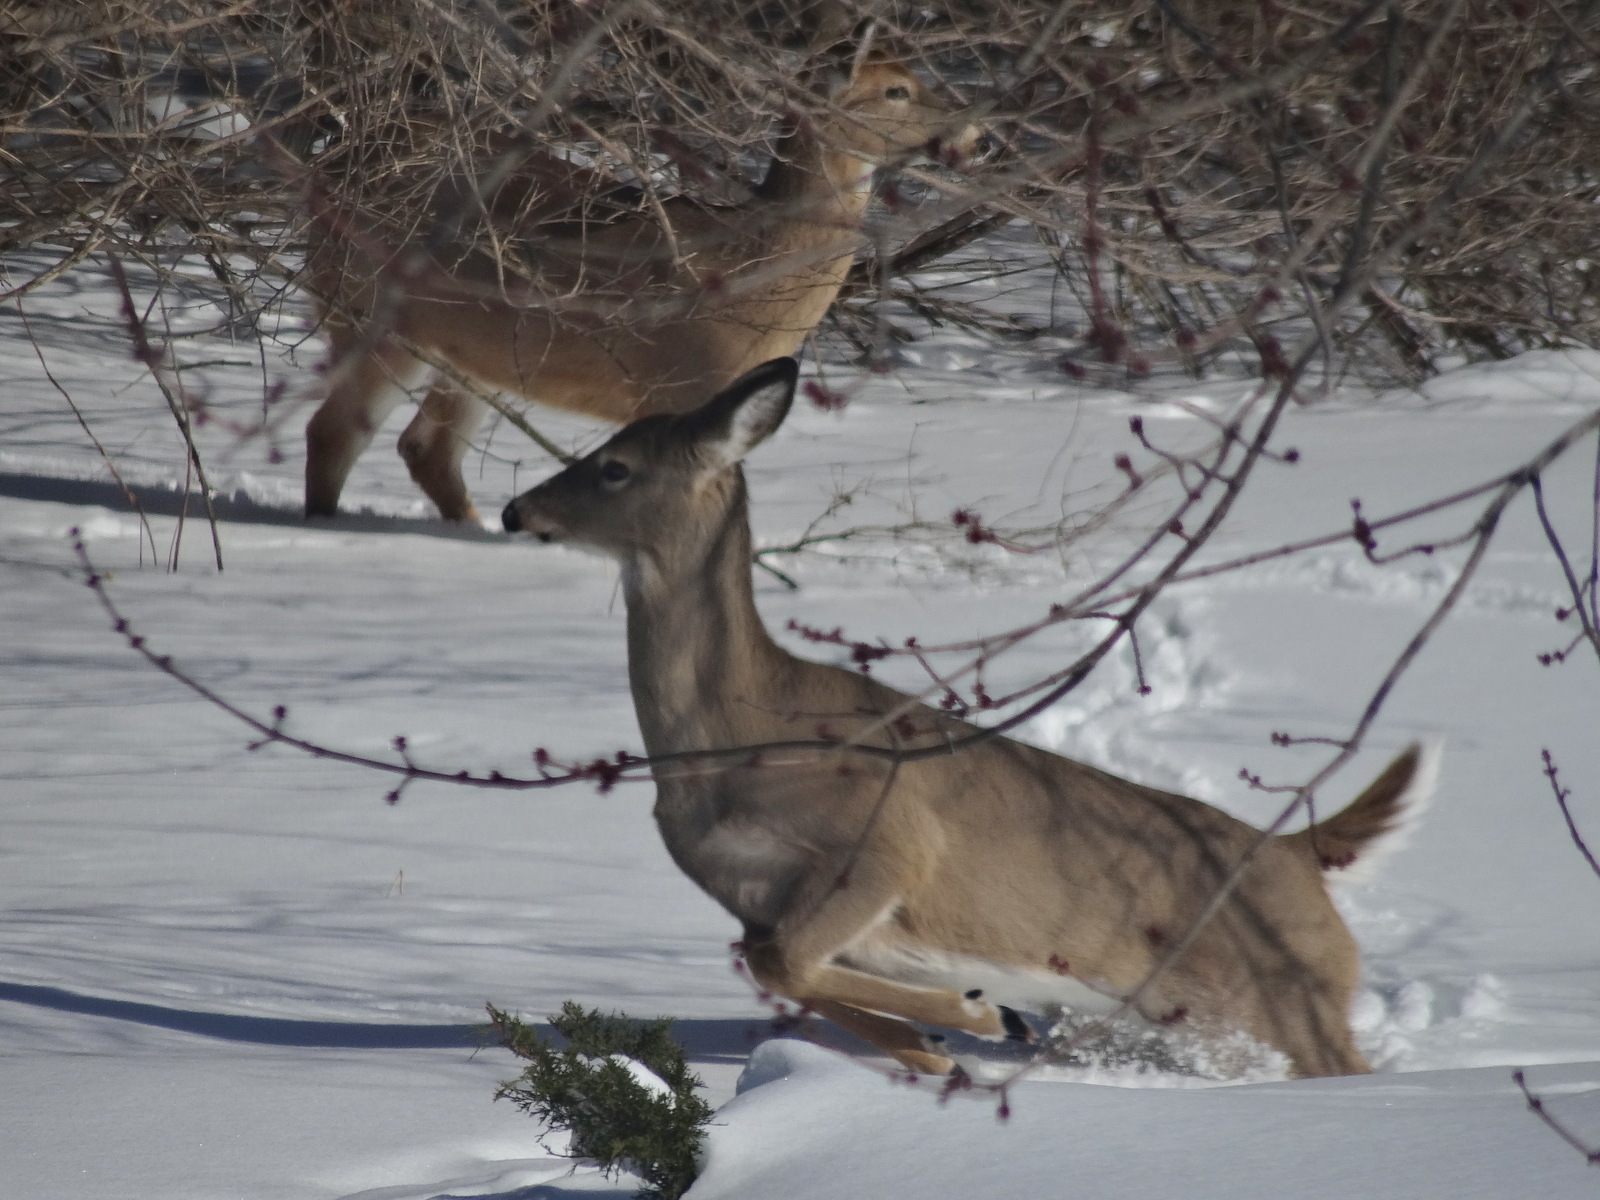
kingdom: Animalia
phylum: Chordata
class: Mammalia
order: Artiodactyla
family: Cervidae
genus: Odocoileus
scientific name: Odocoileus virginianus
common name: White-tailed deer
